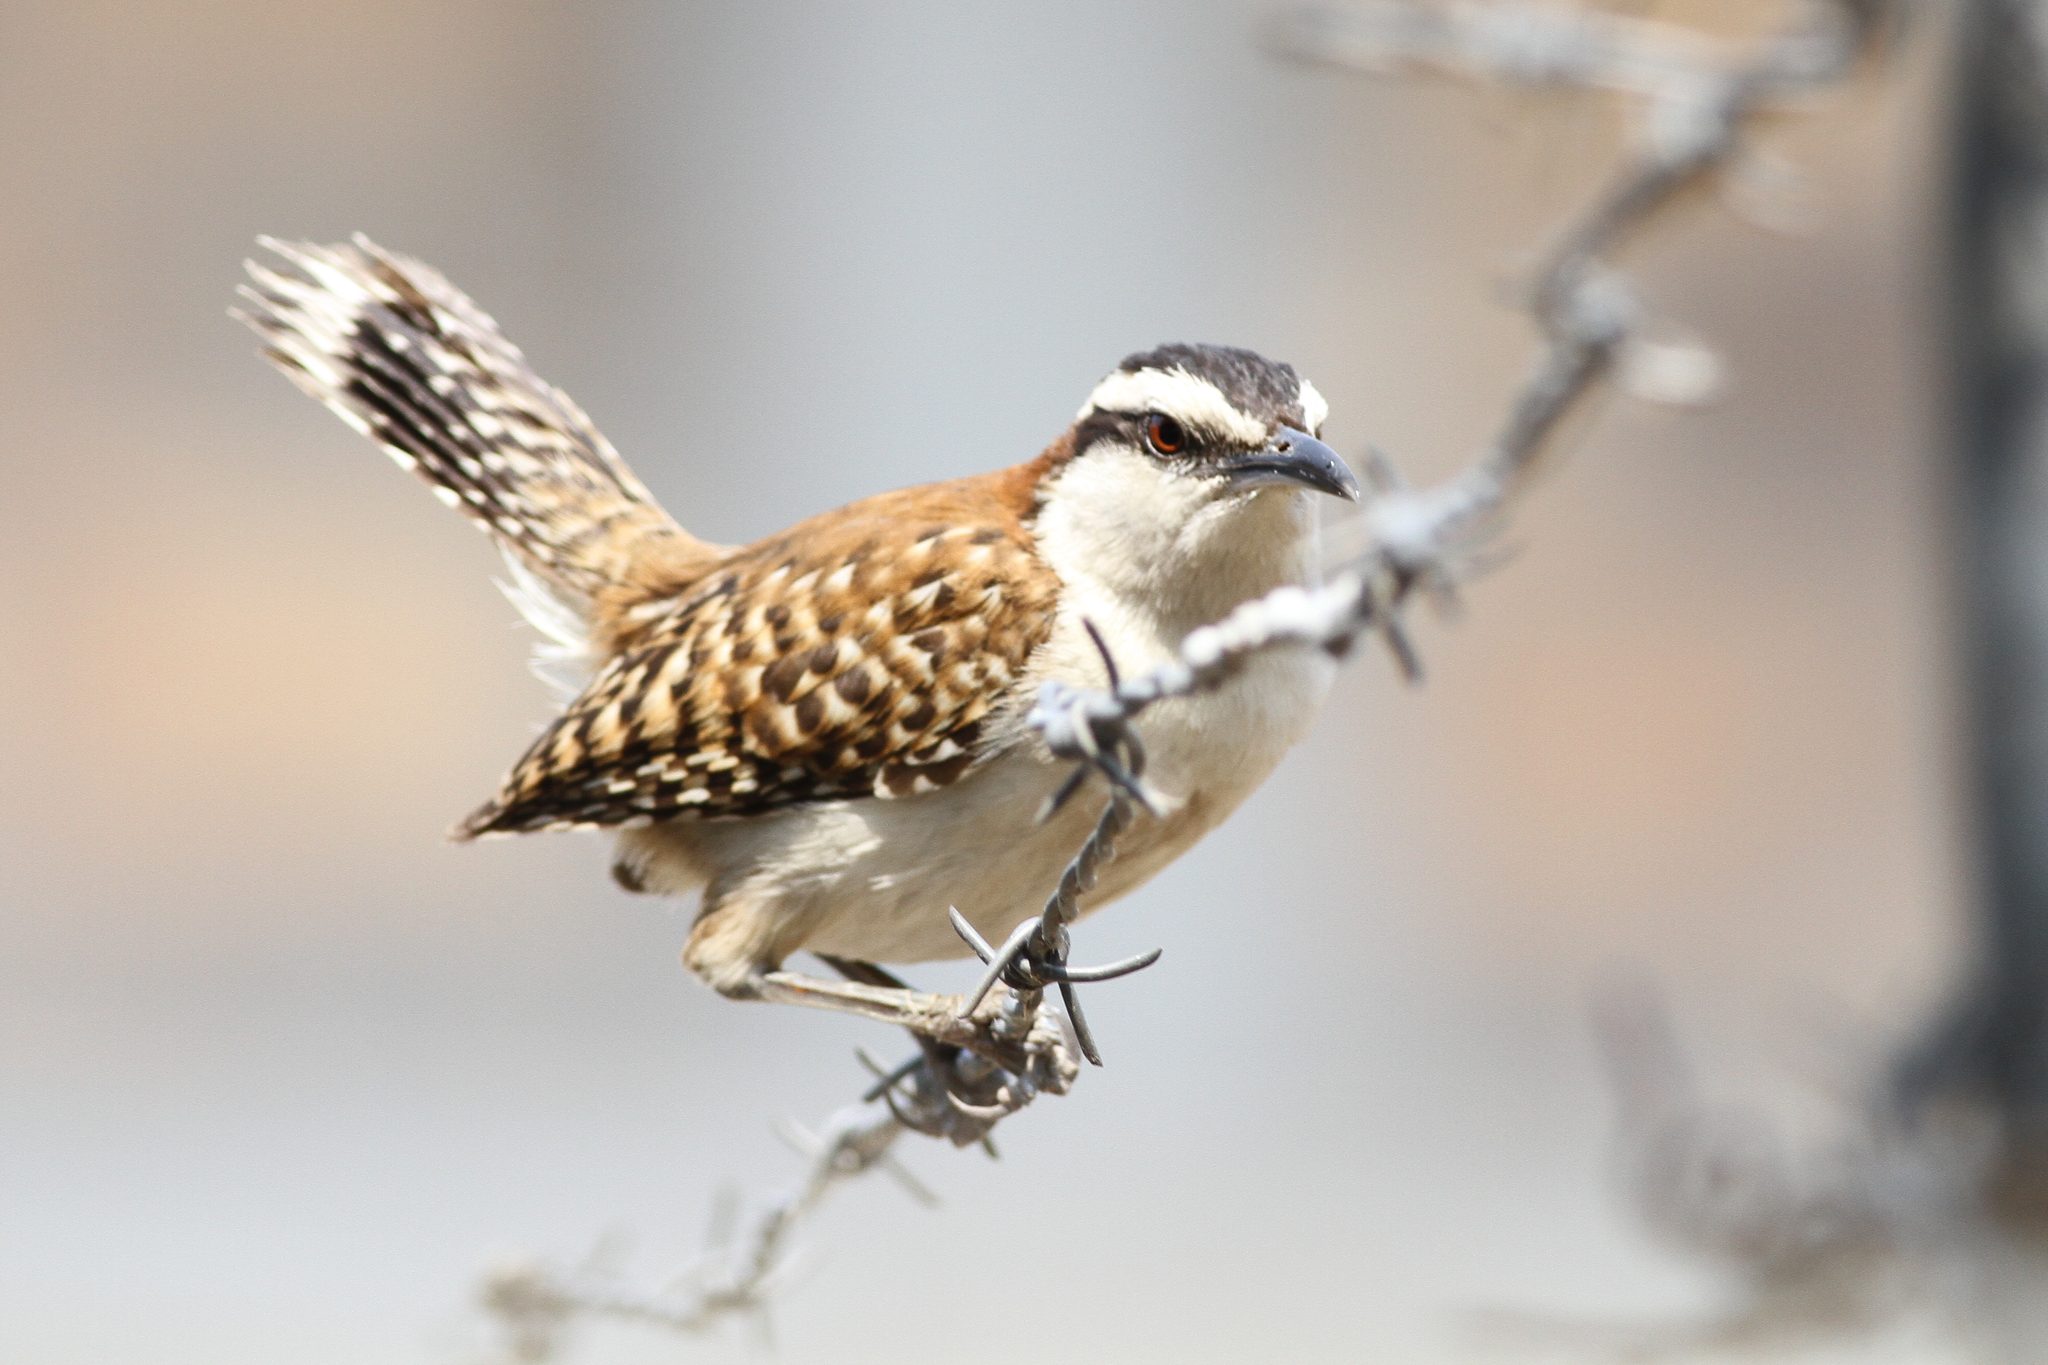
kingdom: Animalia
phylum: Chordata
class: Aves
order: Passeriformes
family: Troglodytidae
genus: Campylorhynchus
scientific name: Campylorhynchus rufinucha
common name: Rufous-naped wren
